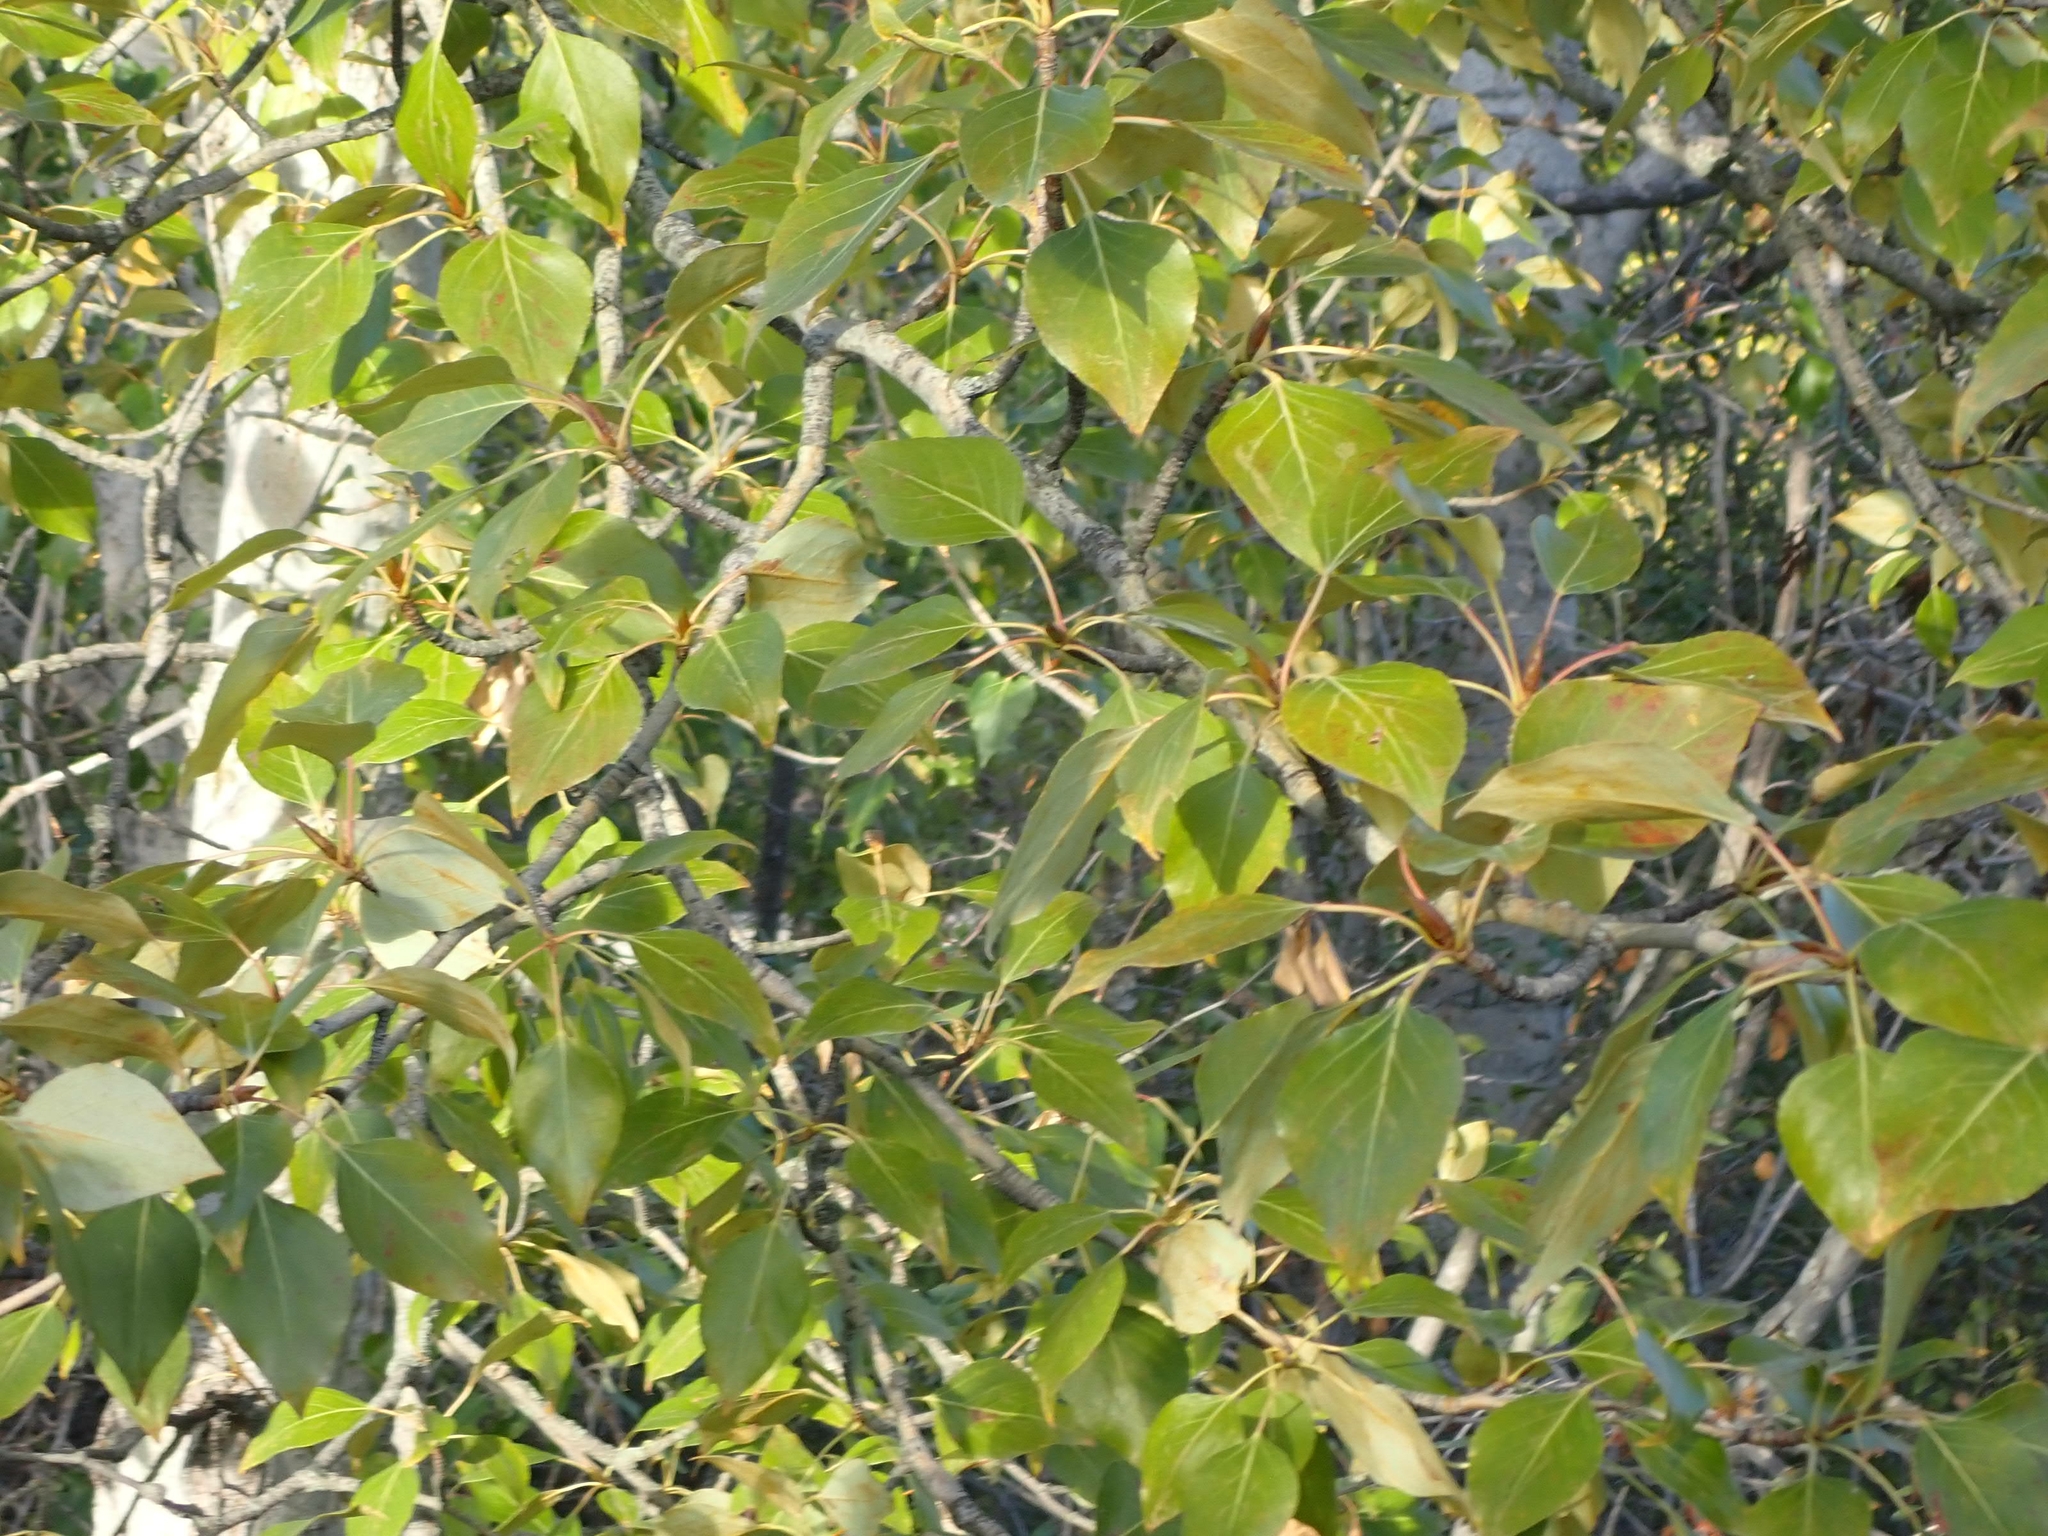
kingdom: Plantae
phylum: Tracheophyta
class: Magnoliopsida
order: Malpighiales
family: Salicaceae
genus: Populus
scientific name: Populus balsamifera
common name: Balsam poplar
